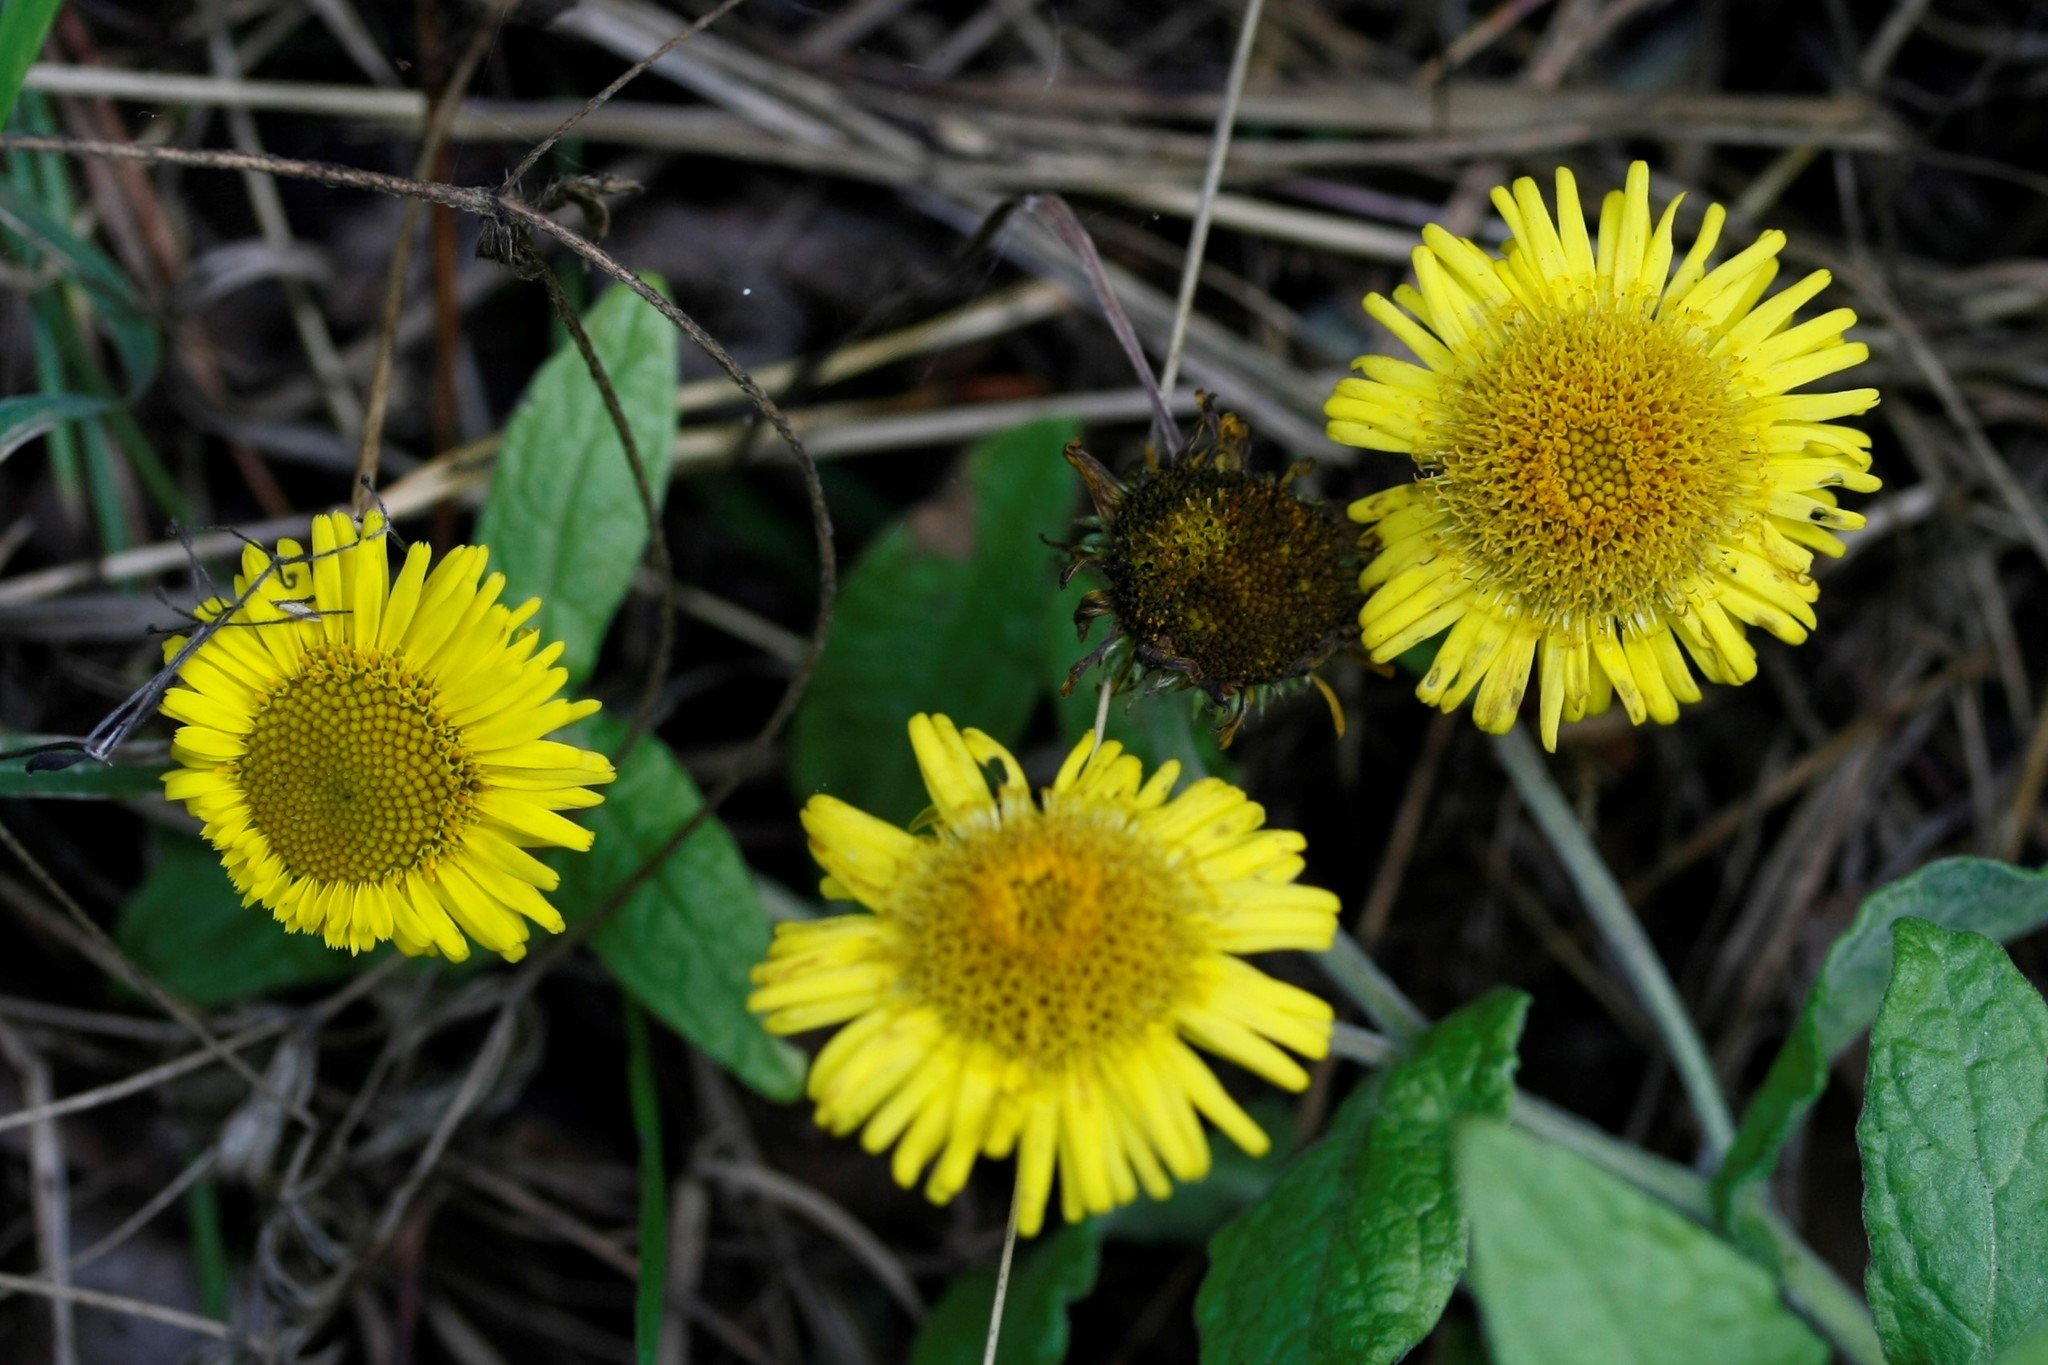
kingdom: Plantae
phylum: Tracheophyta
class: Magnoliopsida
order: Asterales
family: Asteraceae
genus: Pulicaria
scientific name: Pulicaria dysenterica
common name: Common fleabane
